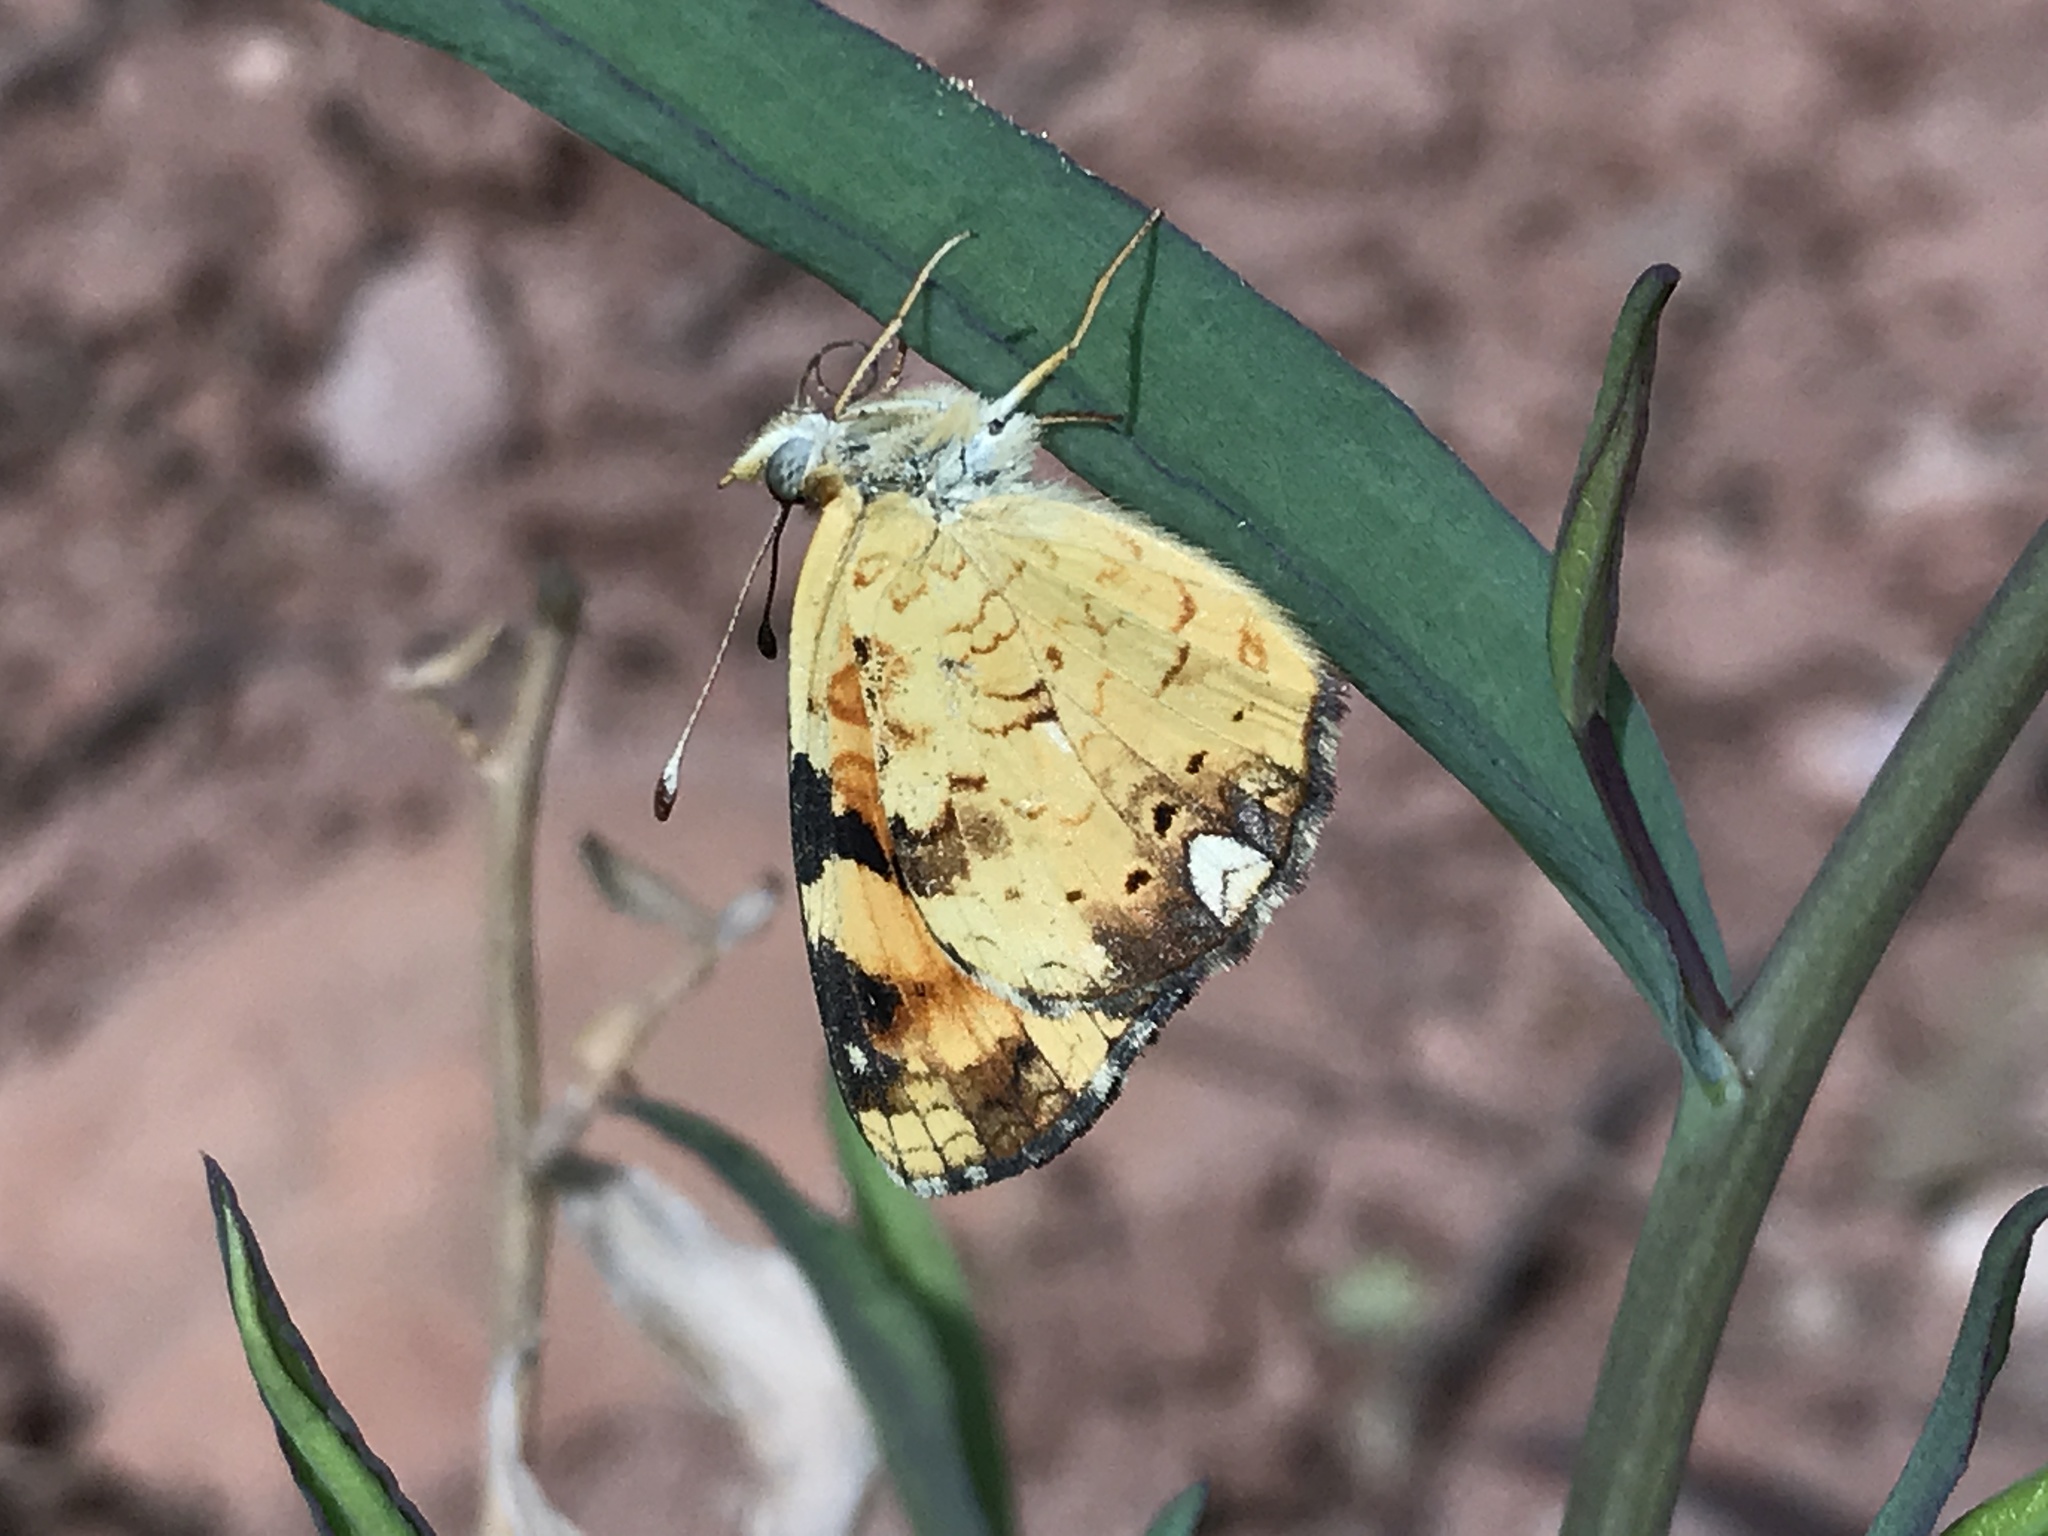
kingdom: Animalia
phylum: Arthropoda
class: Insecta
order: Lepidoptera
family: Nymphalidae
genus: Phyciodes
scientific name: Phyciodes batesii
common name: Tawny crescent
